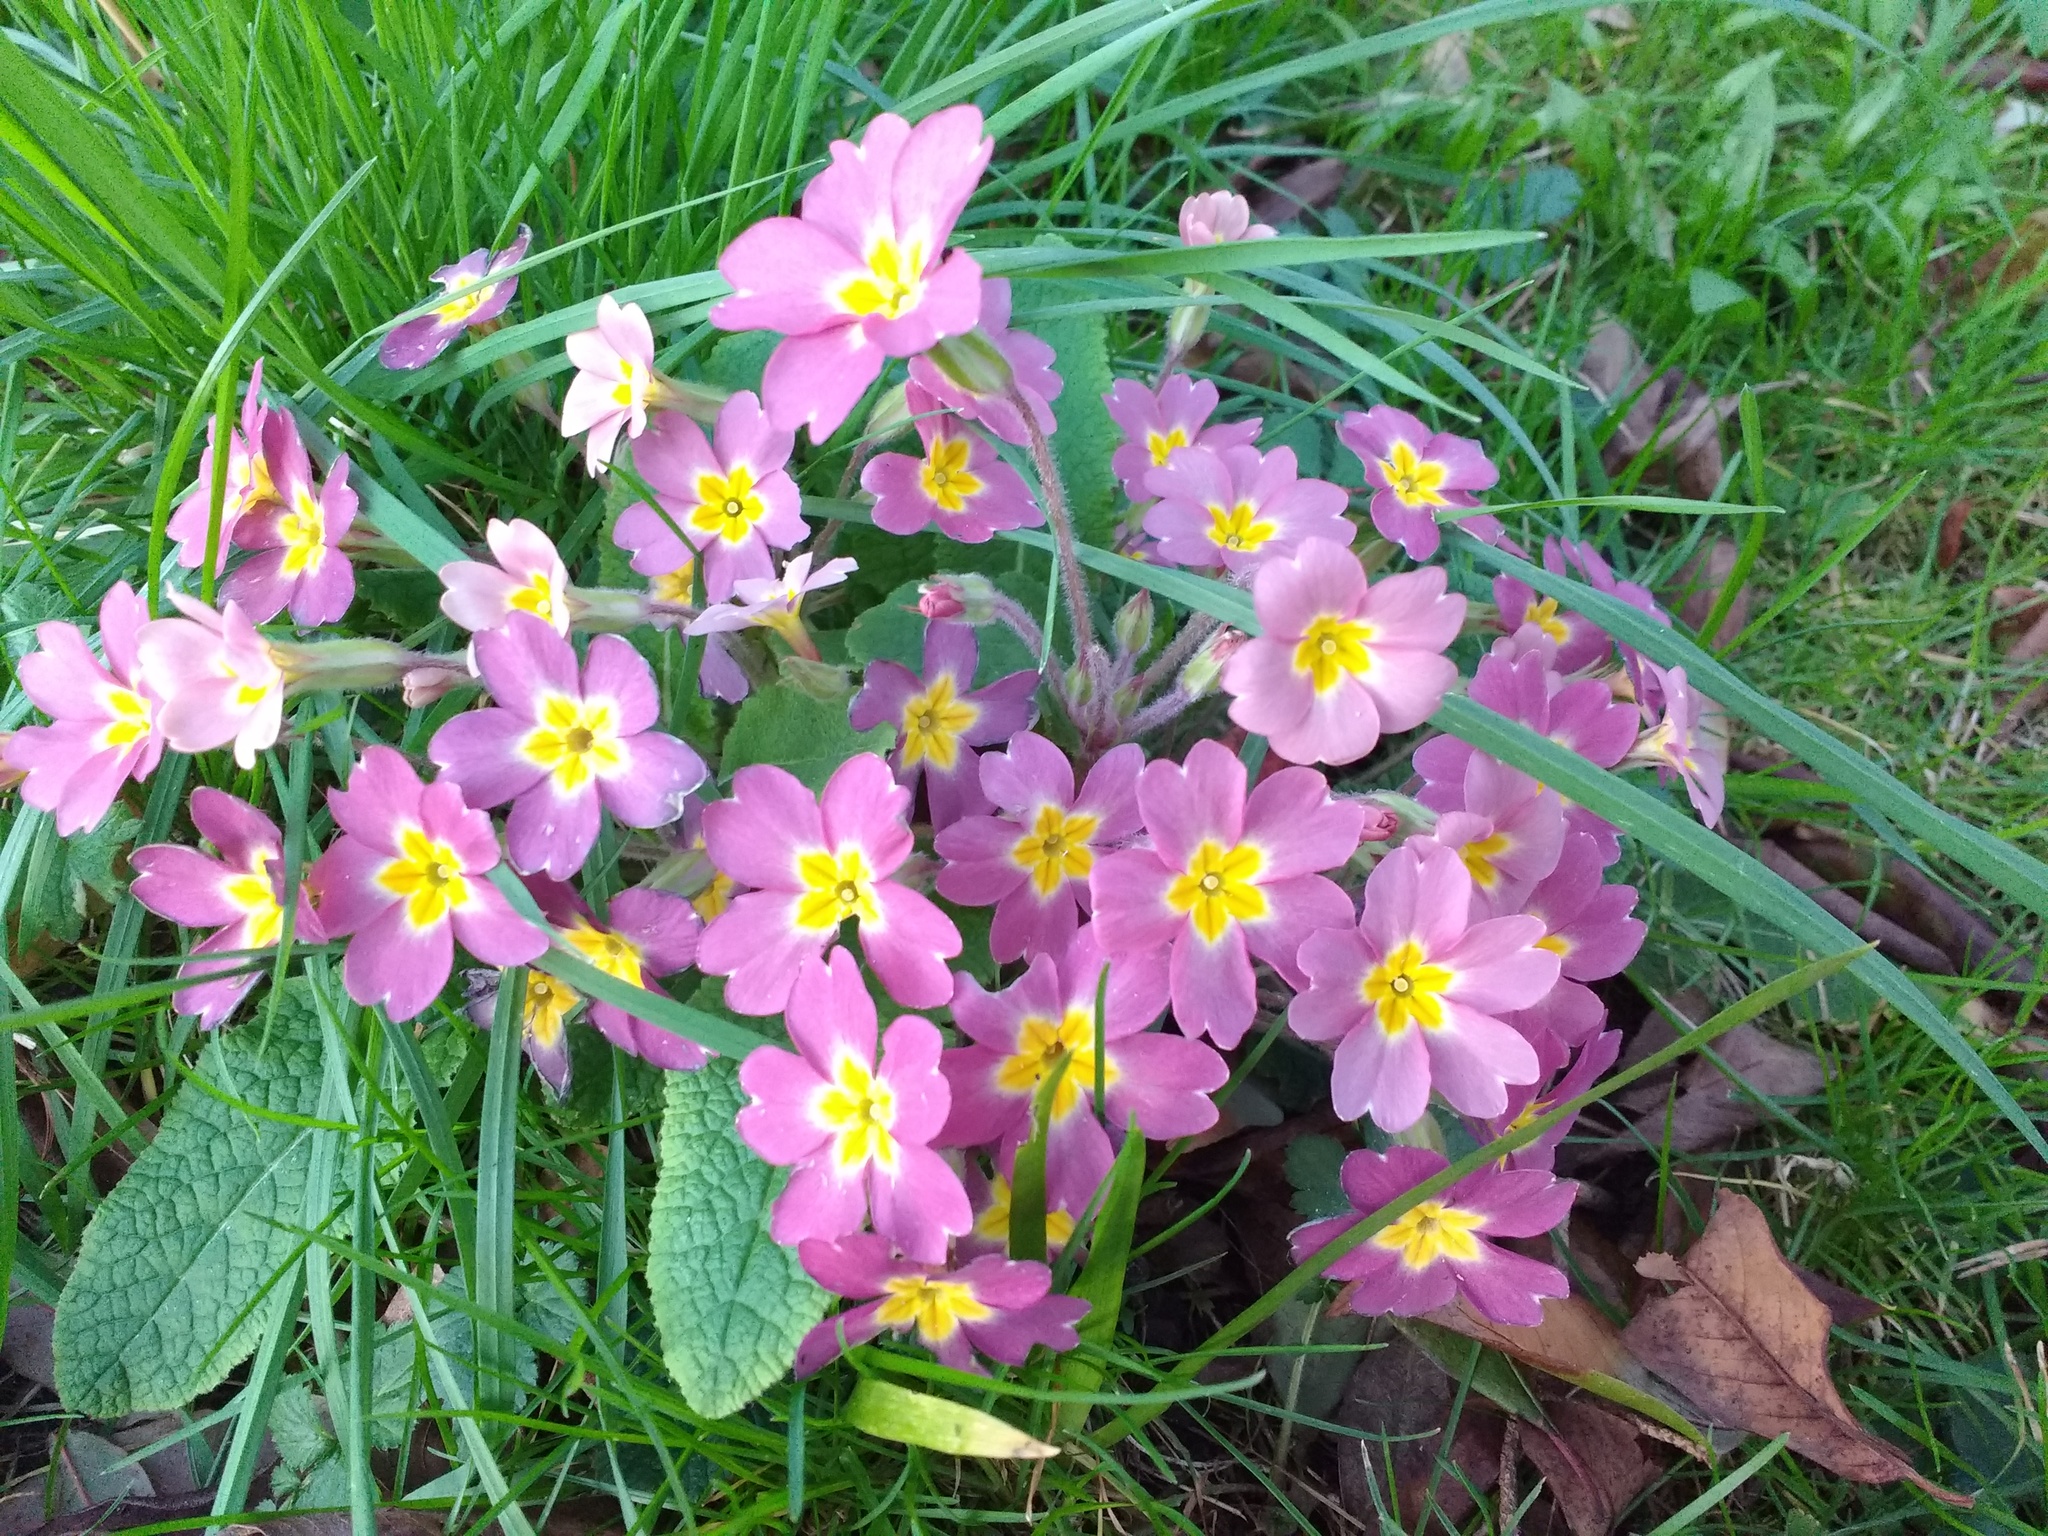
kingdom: Plantae
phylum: Tracheophyta
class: Magnoliopsida
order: Ericales
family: Primulaceae
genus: Primula
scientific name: Primula vulgaris
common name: Primrose
